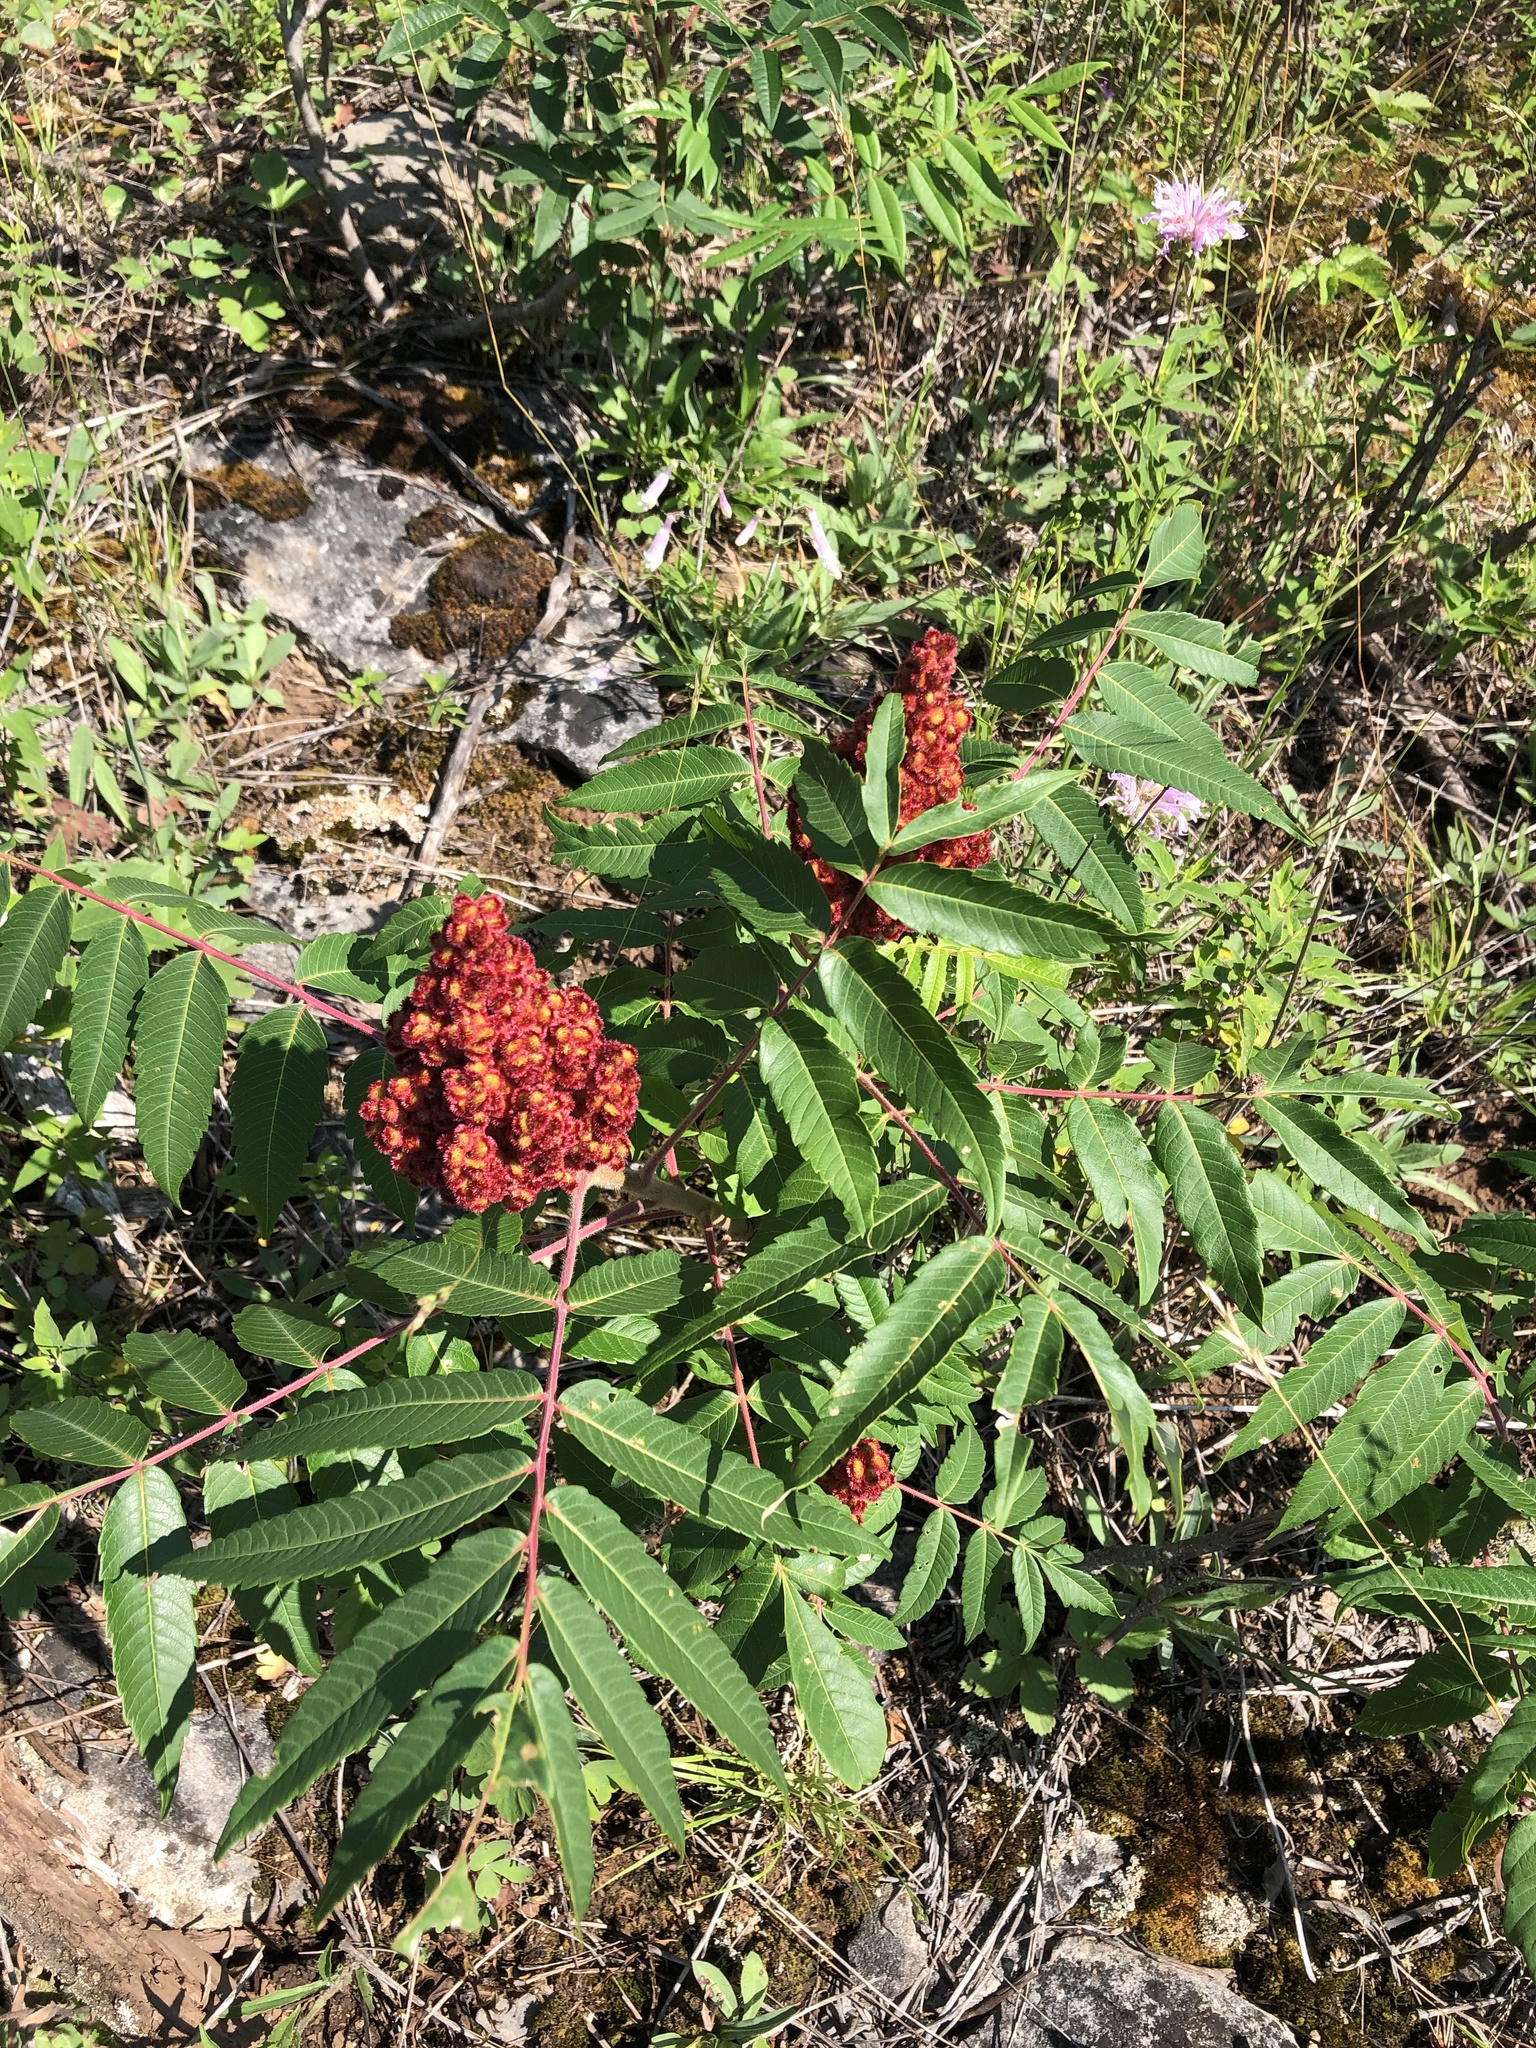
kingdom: Plantae
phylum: Tracheophyta
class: Magnoliopsida
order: Sapindales
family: Anacardiaceae
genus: Rhus
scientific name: Rhus typhina
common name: Staghorn sumac
